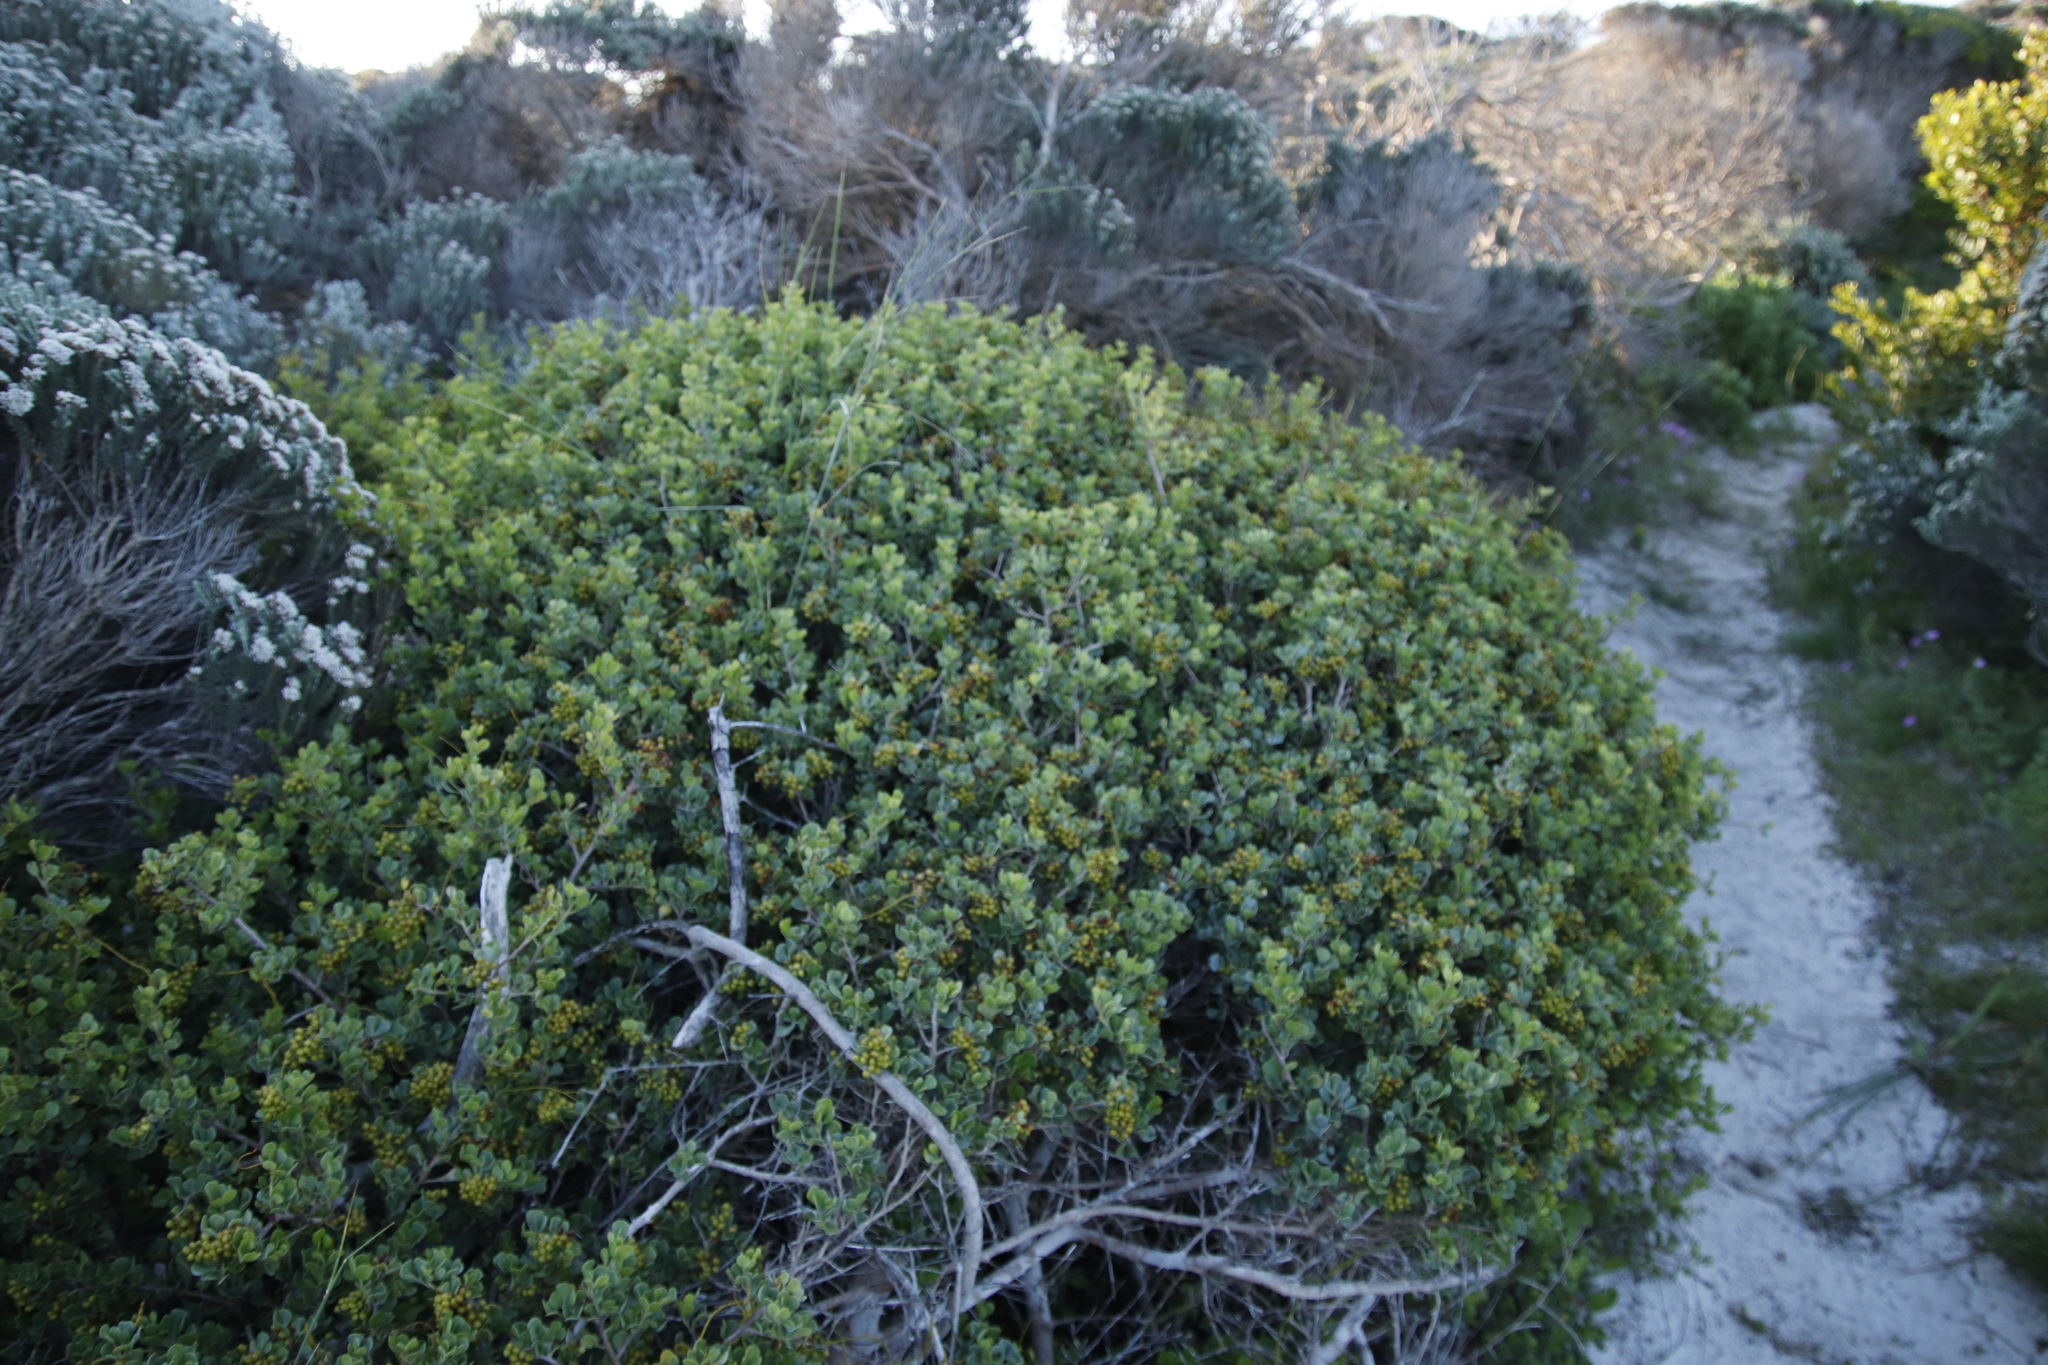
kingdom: Plantae
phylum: Tracheophyta
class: Magnoliopsida
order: Sapindales
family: Anacardiaceae
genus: Searsia
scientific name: Searsia glauca
